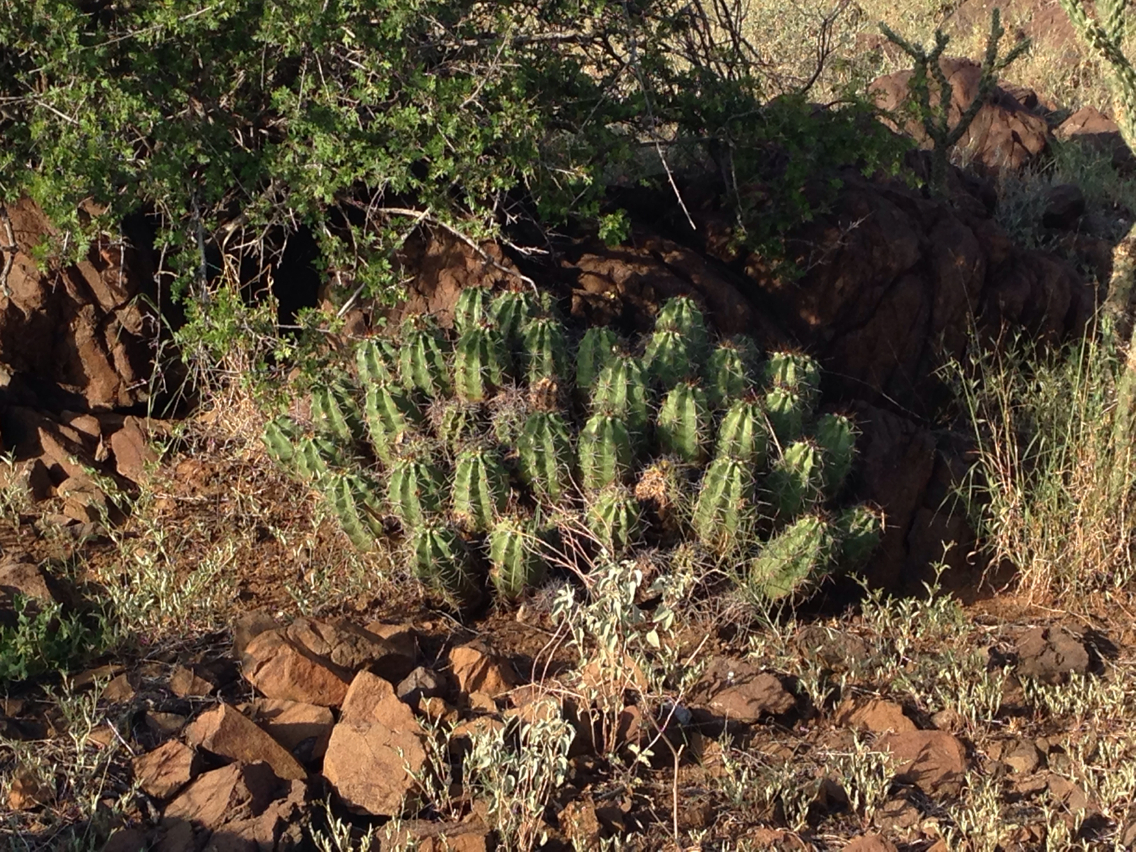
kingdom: Plantae
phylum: Tracheophyta
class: Magnoliopsida
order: Caryophyllales
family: Cactaceae
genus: Echinocereus
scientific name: Echinocereus coccineus
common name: Scarlet hedgehog cactus
